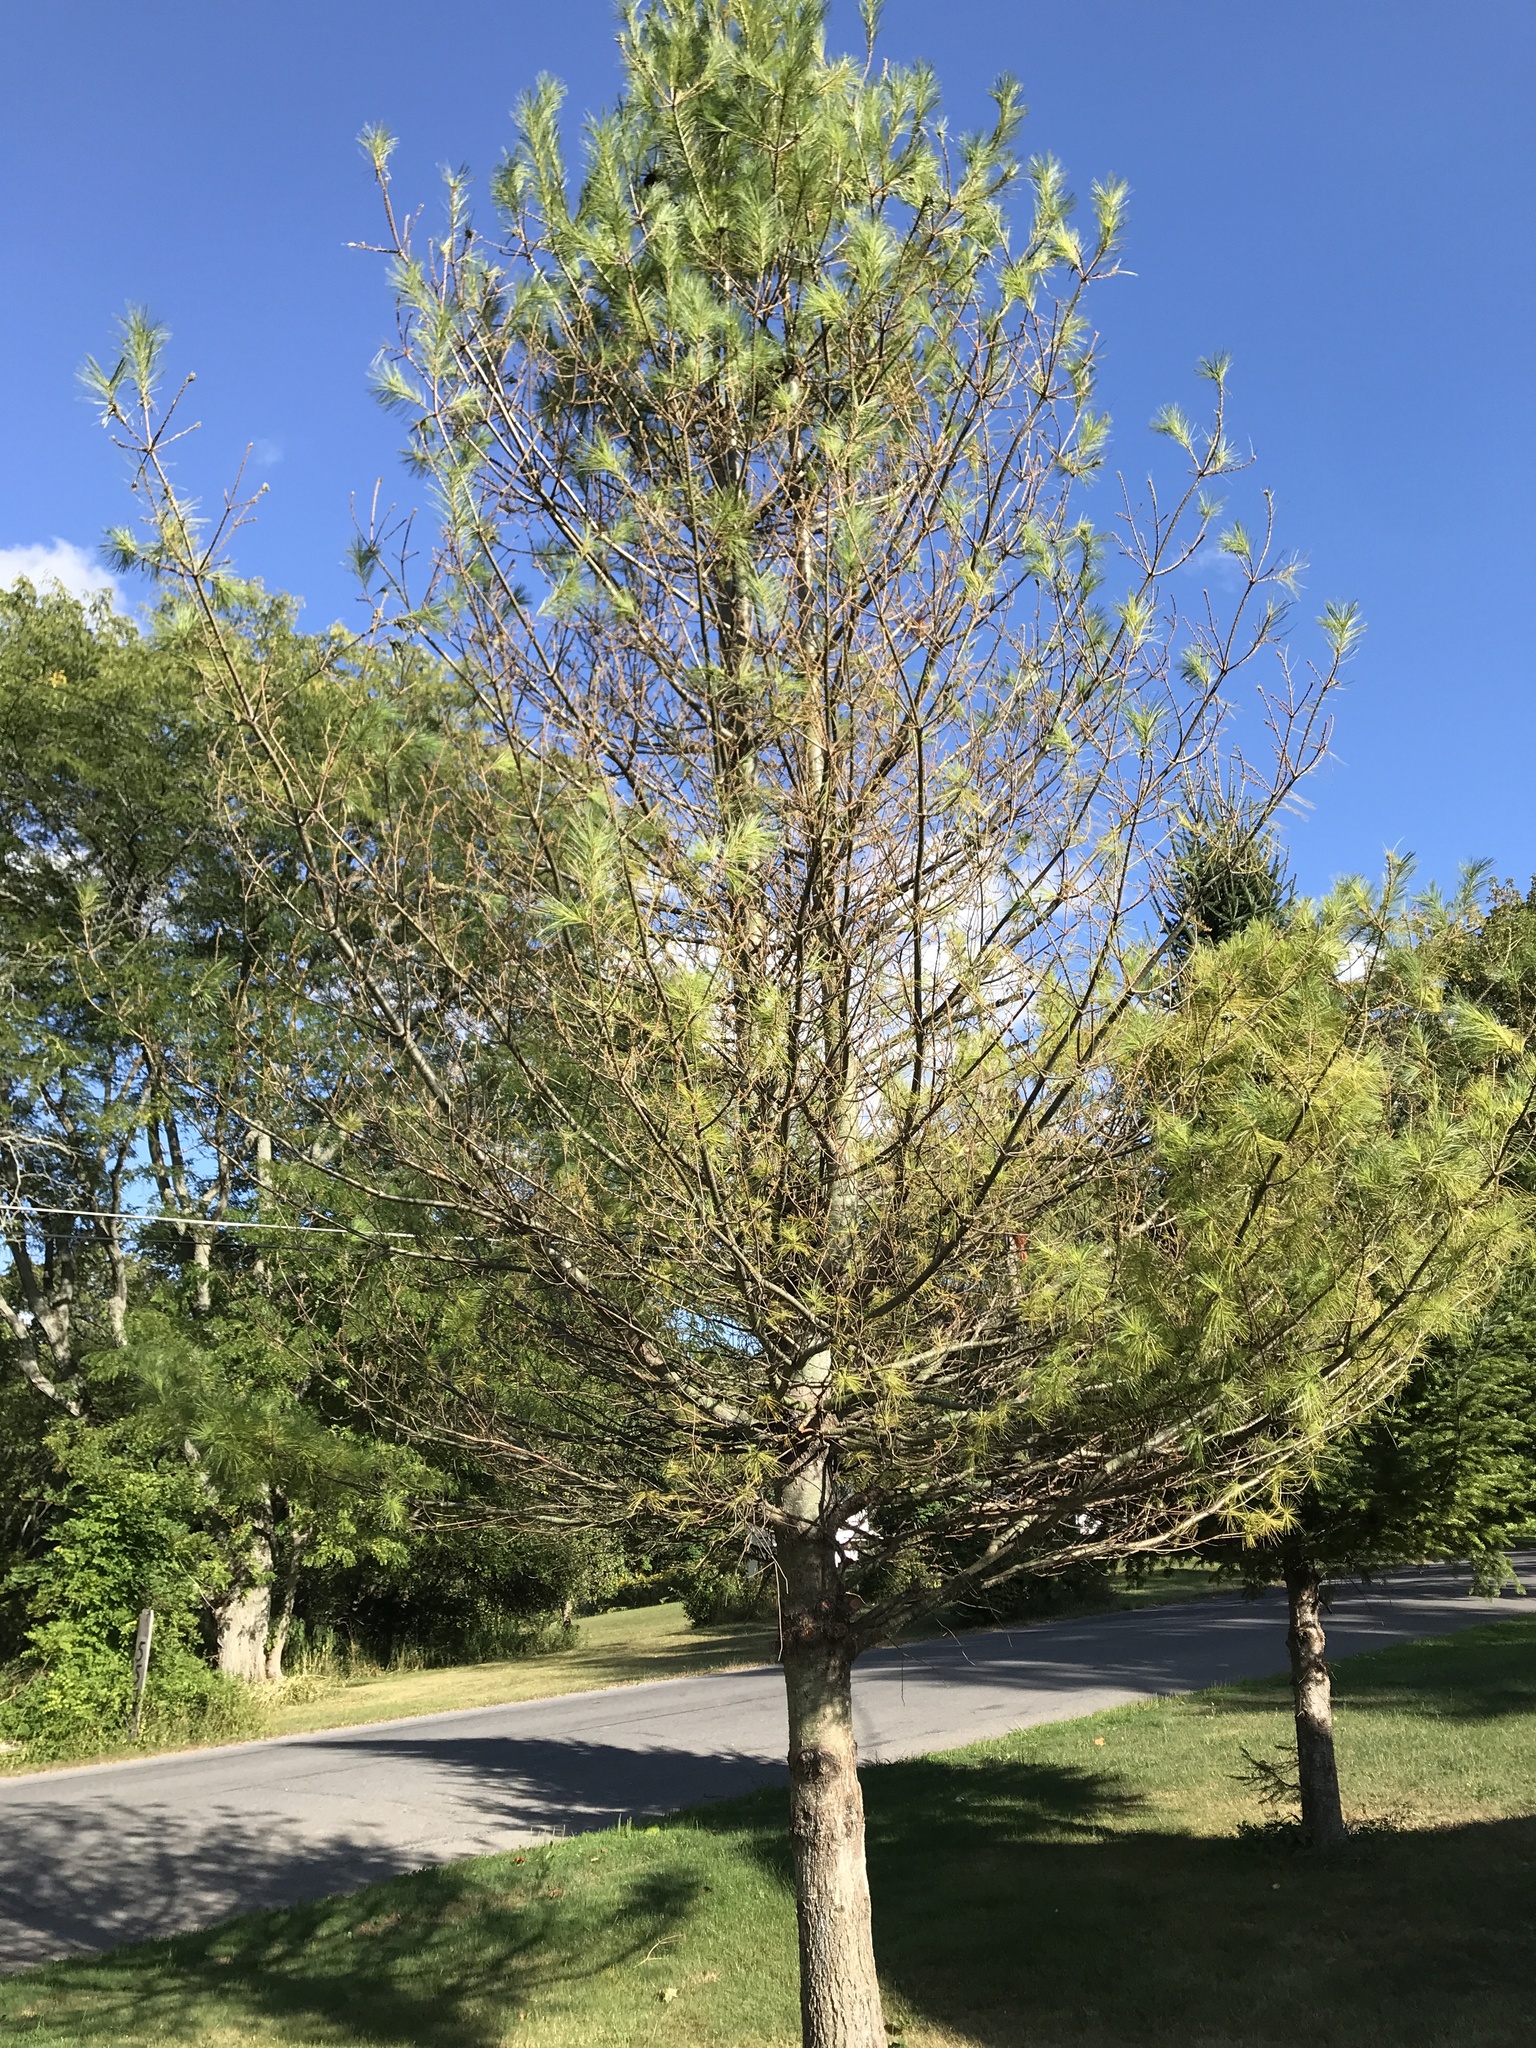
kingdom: Animalia
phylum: Arthropoda
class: Insecta
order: Hymenoptera
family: Diprionidae
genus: Neodiprion
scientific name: Neodiprion pinetum
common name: White pine sawfly
